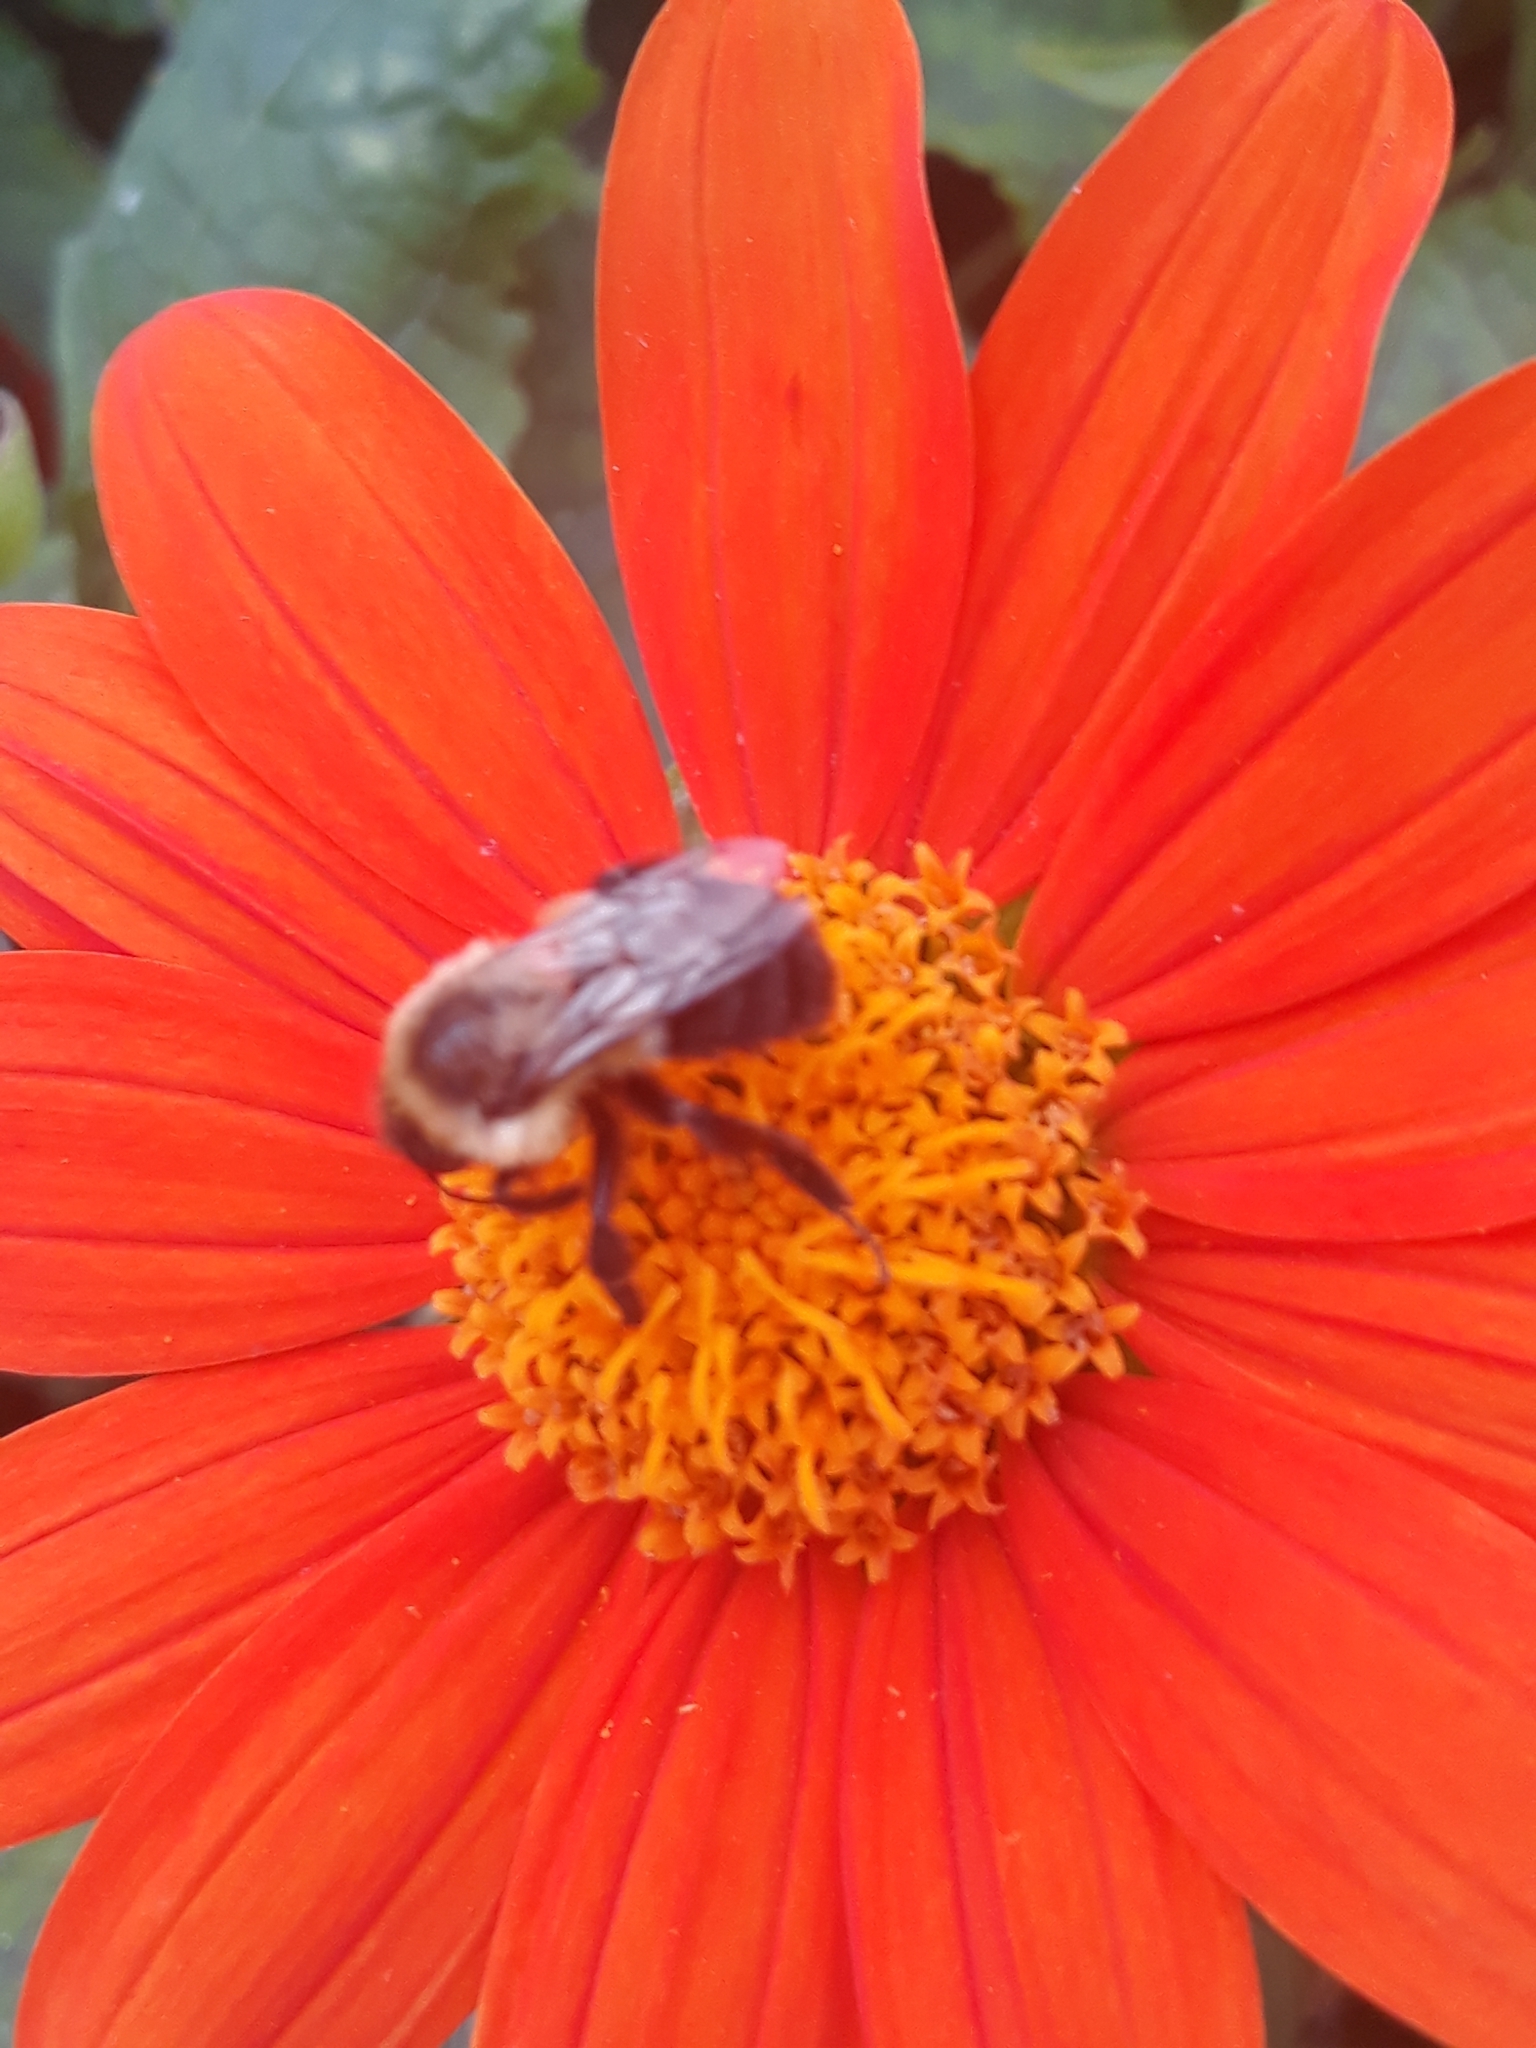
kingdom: Animalia
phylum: Arthropoda
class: Insecta
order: Hymenoptera
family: Apidae
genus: Bombus
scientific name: Bombus impatiens
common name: Common eastern bumble bee
